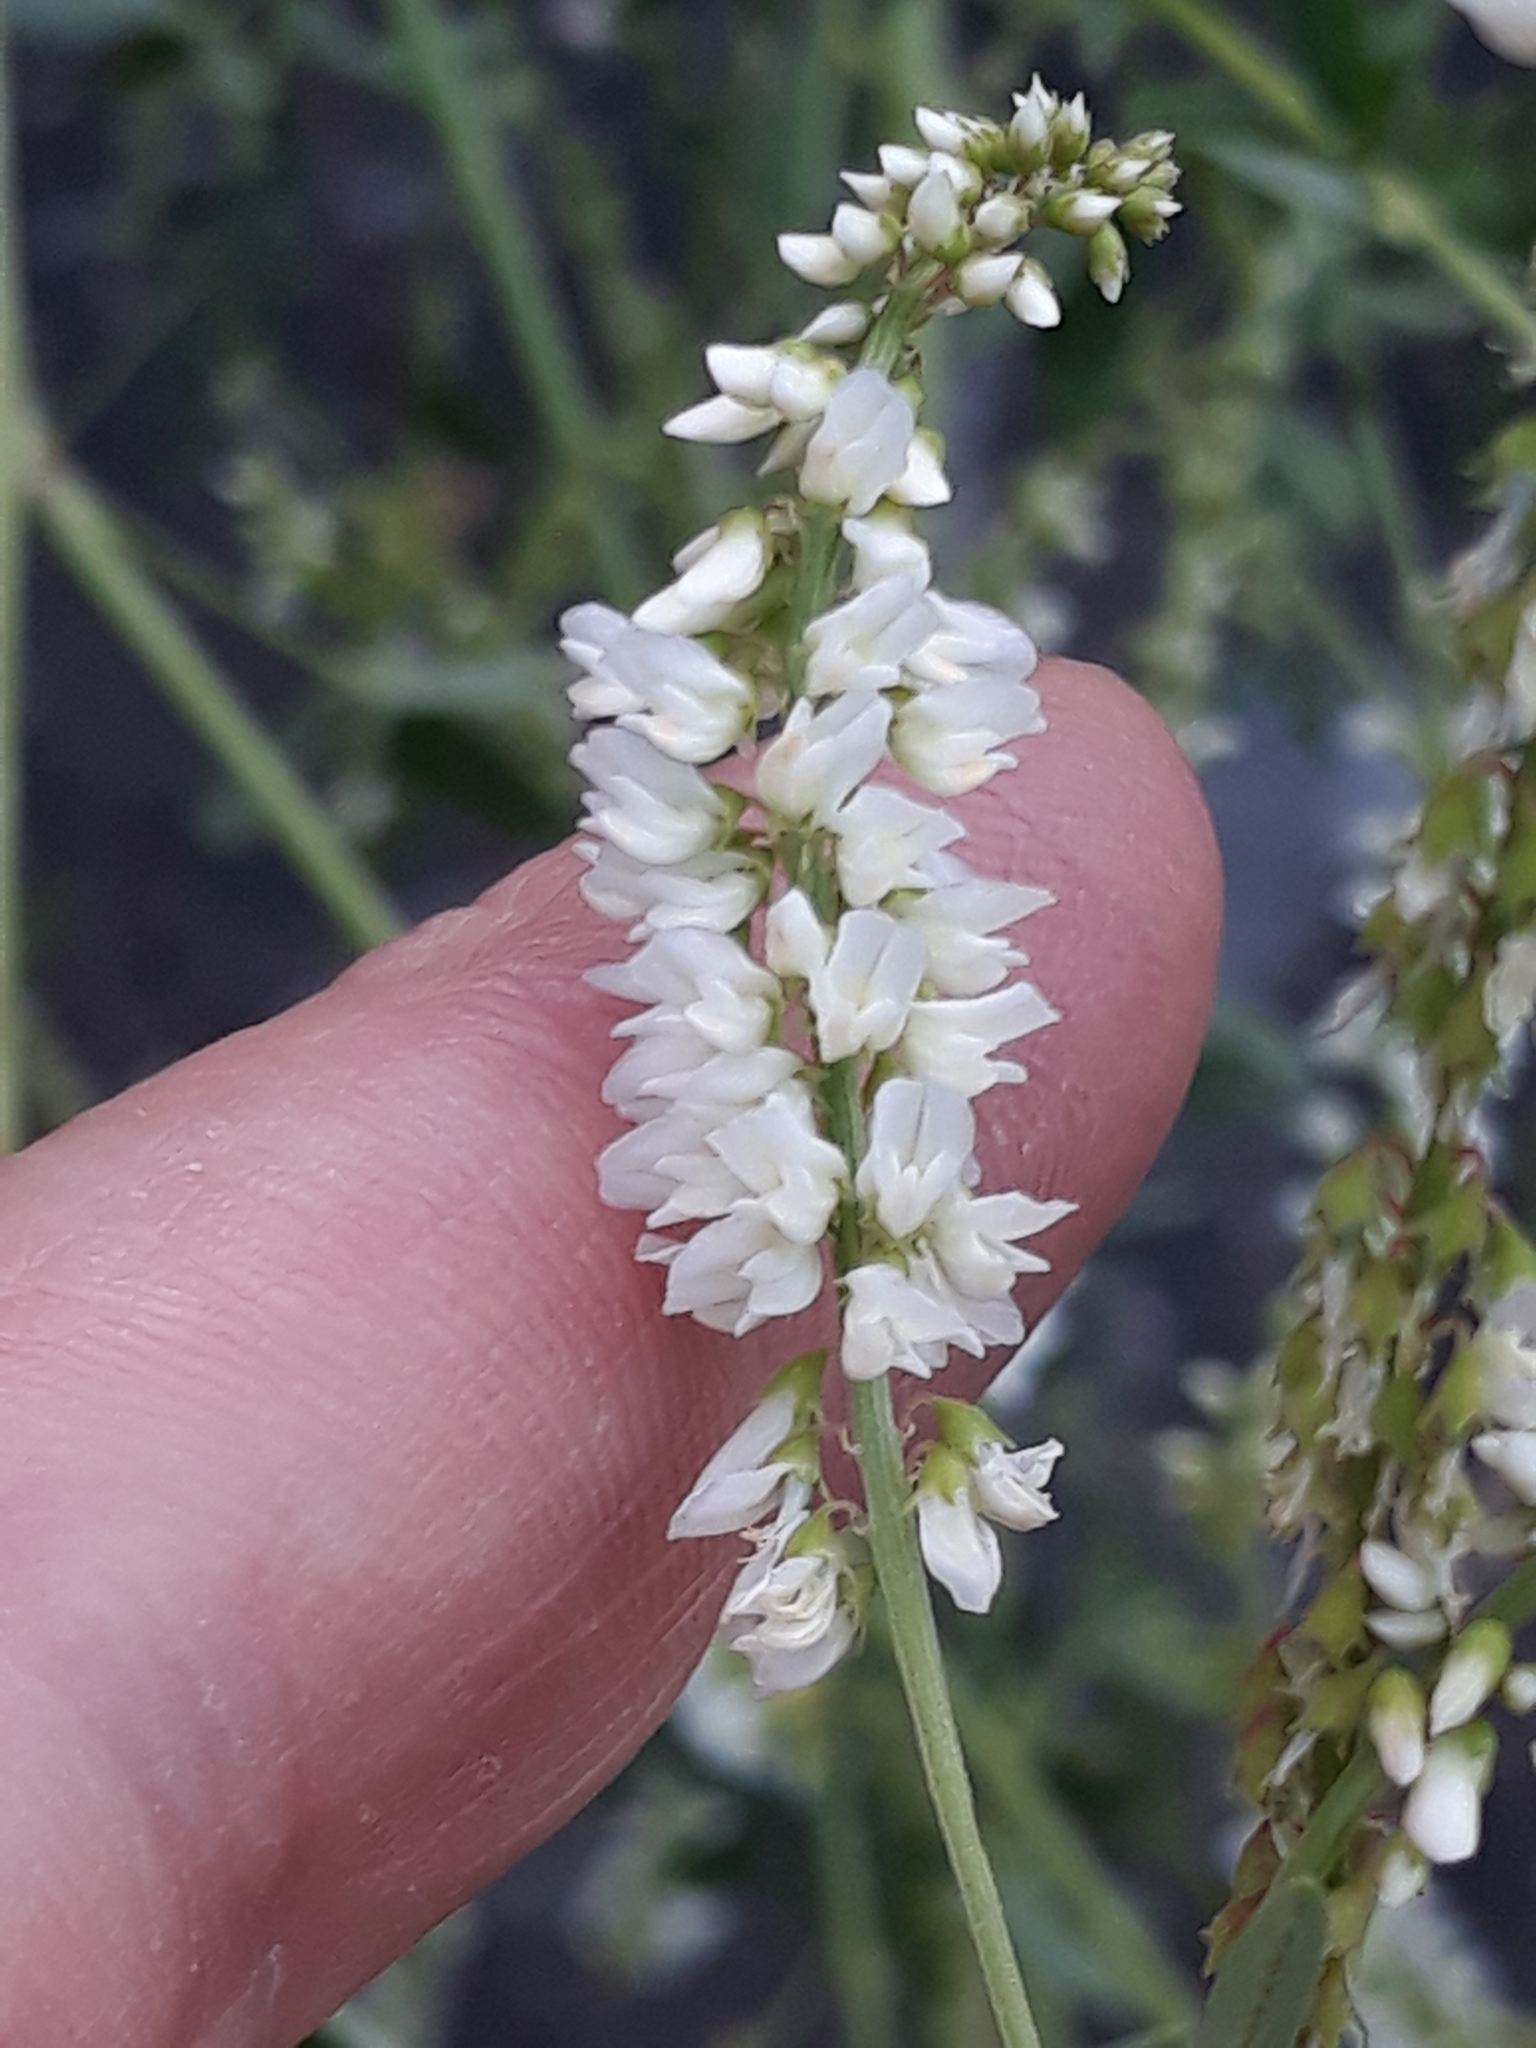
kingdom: Plantae
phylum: Tracheophyta
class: Magnoliopsida
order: Fabales
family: Fabaceae
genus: Melilotus
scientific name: Melilotus albus
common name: White melilot
